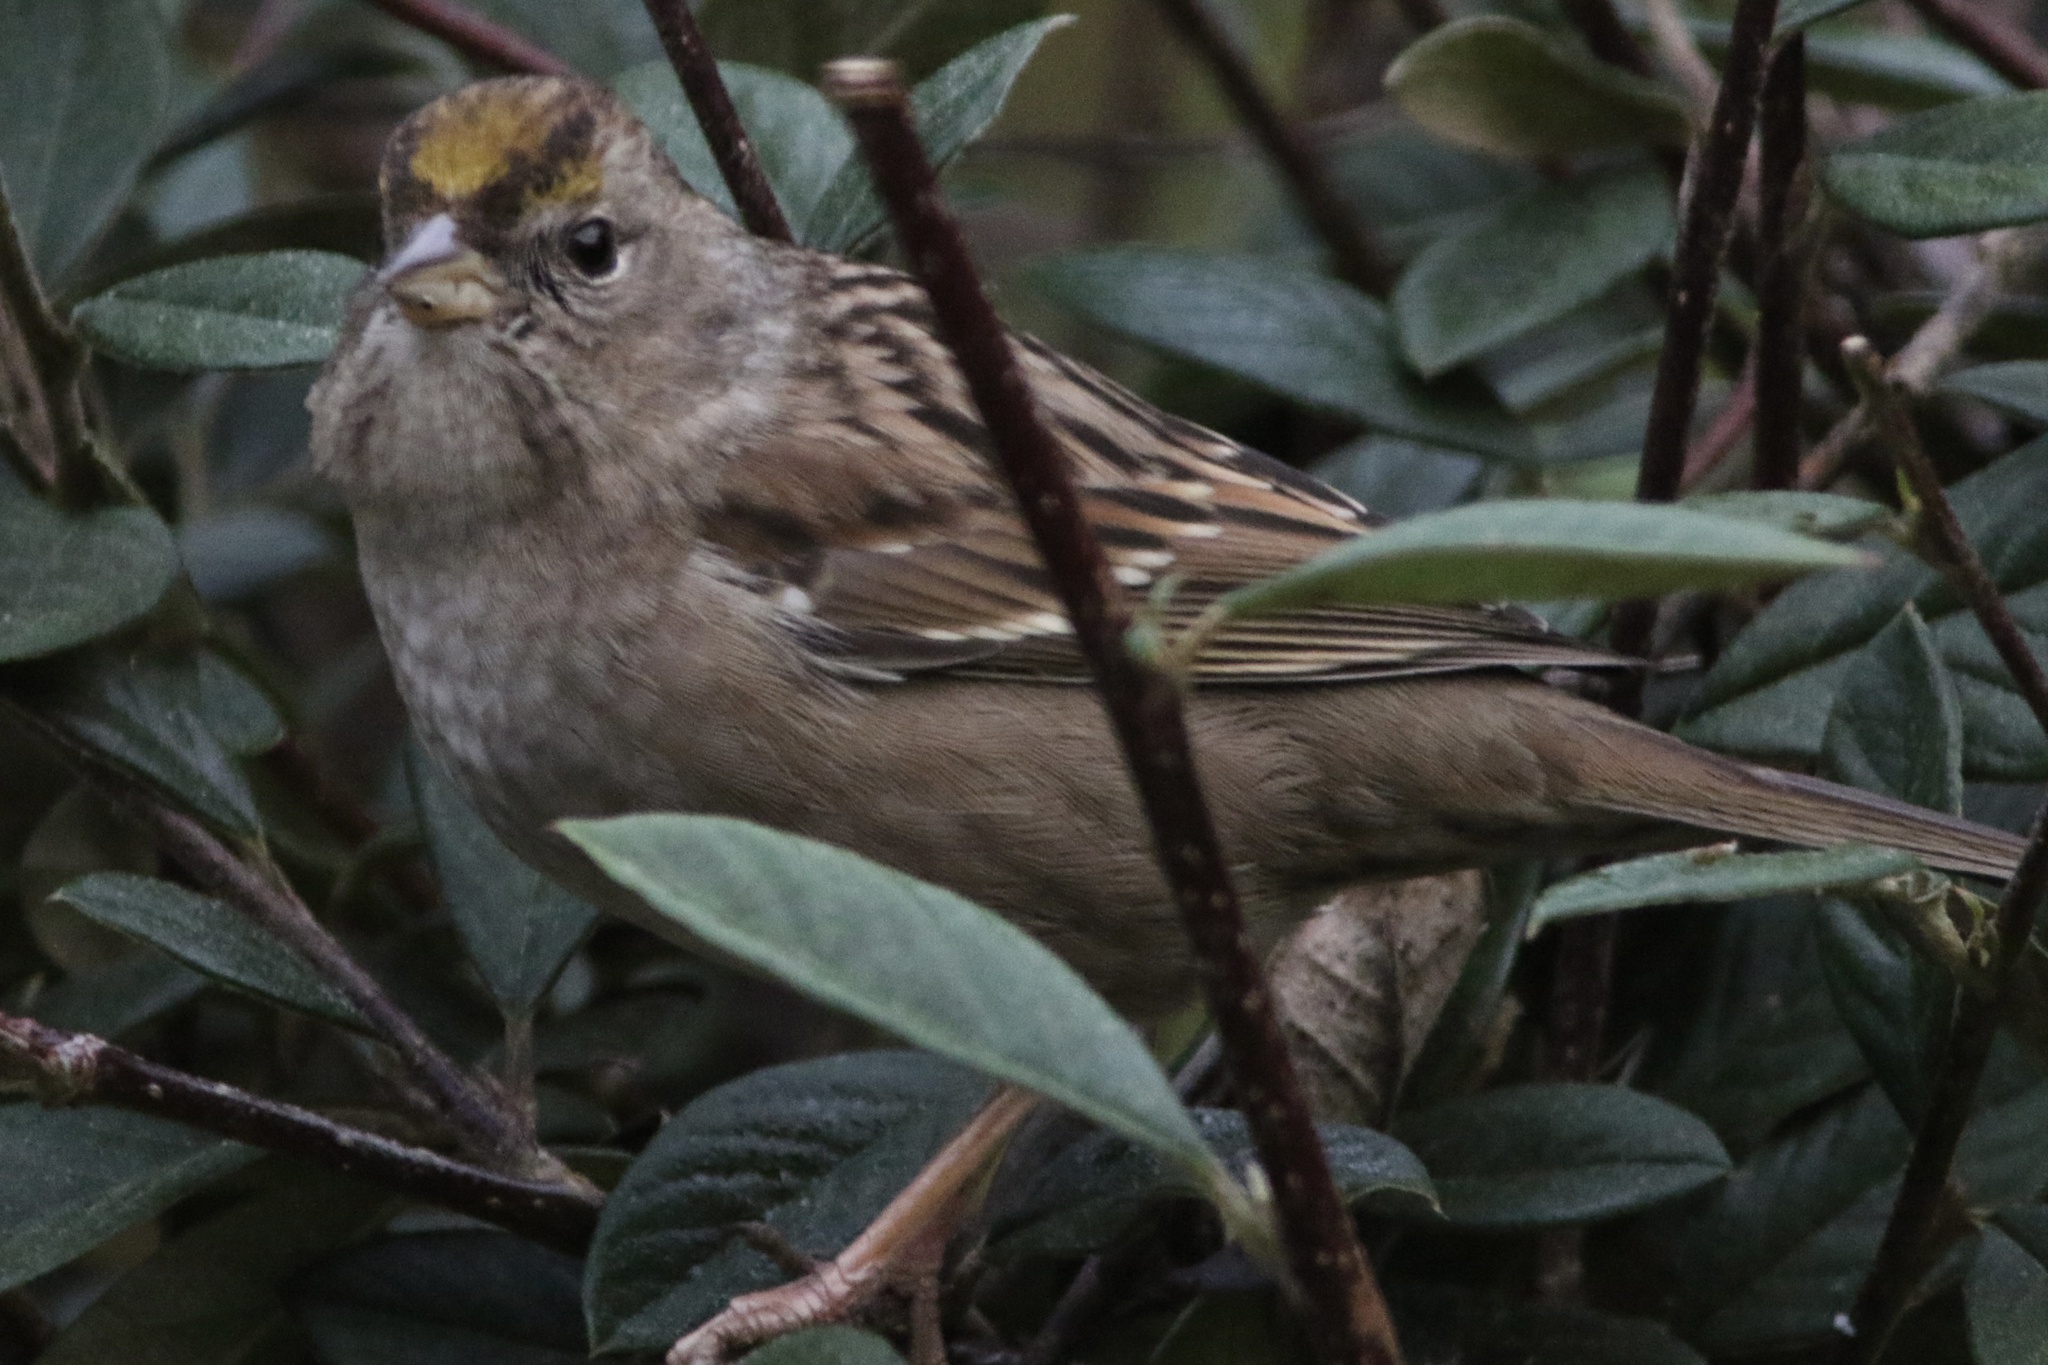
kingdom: Animalia
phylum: Chordata
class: Aves
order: Passeriformes
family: Passerellidae
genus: Zonotrichia
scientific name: Zonotrichia atricapilla
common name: Golden-crowned sparrow
